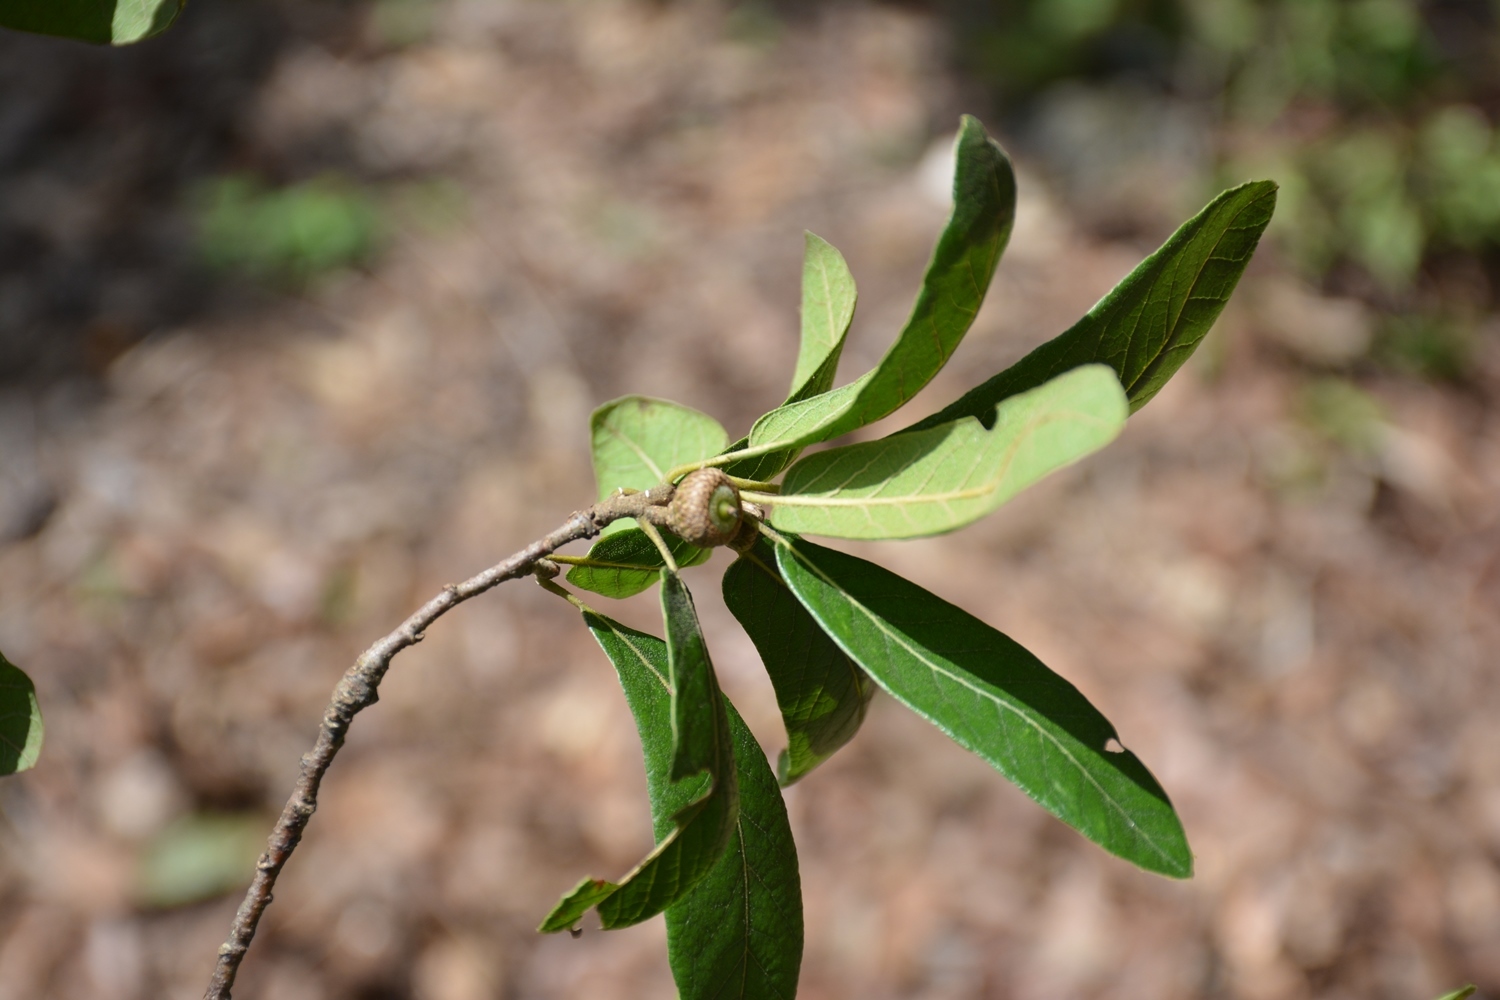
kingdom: Plantae
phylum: Tracheophyta
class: Magnoliopsida
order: Fagales
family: Fagaceae
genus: Quercus
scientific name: Quercus crassipes
